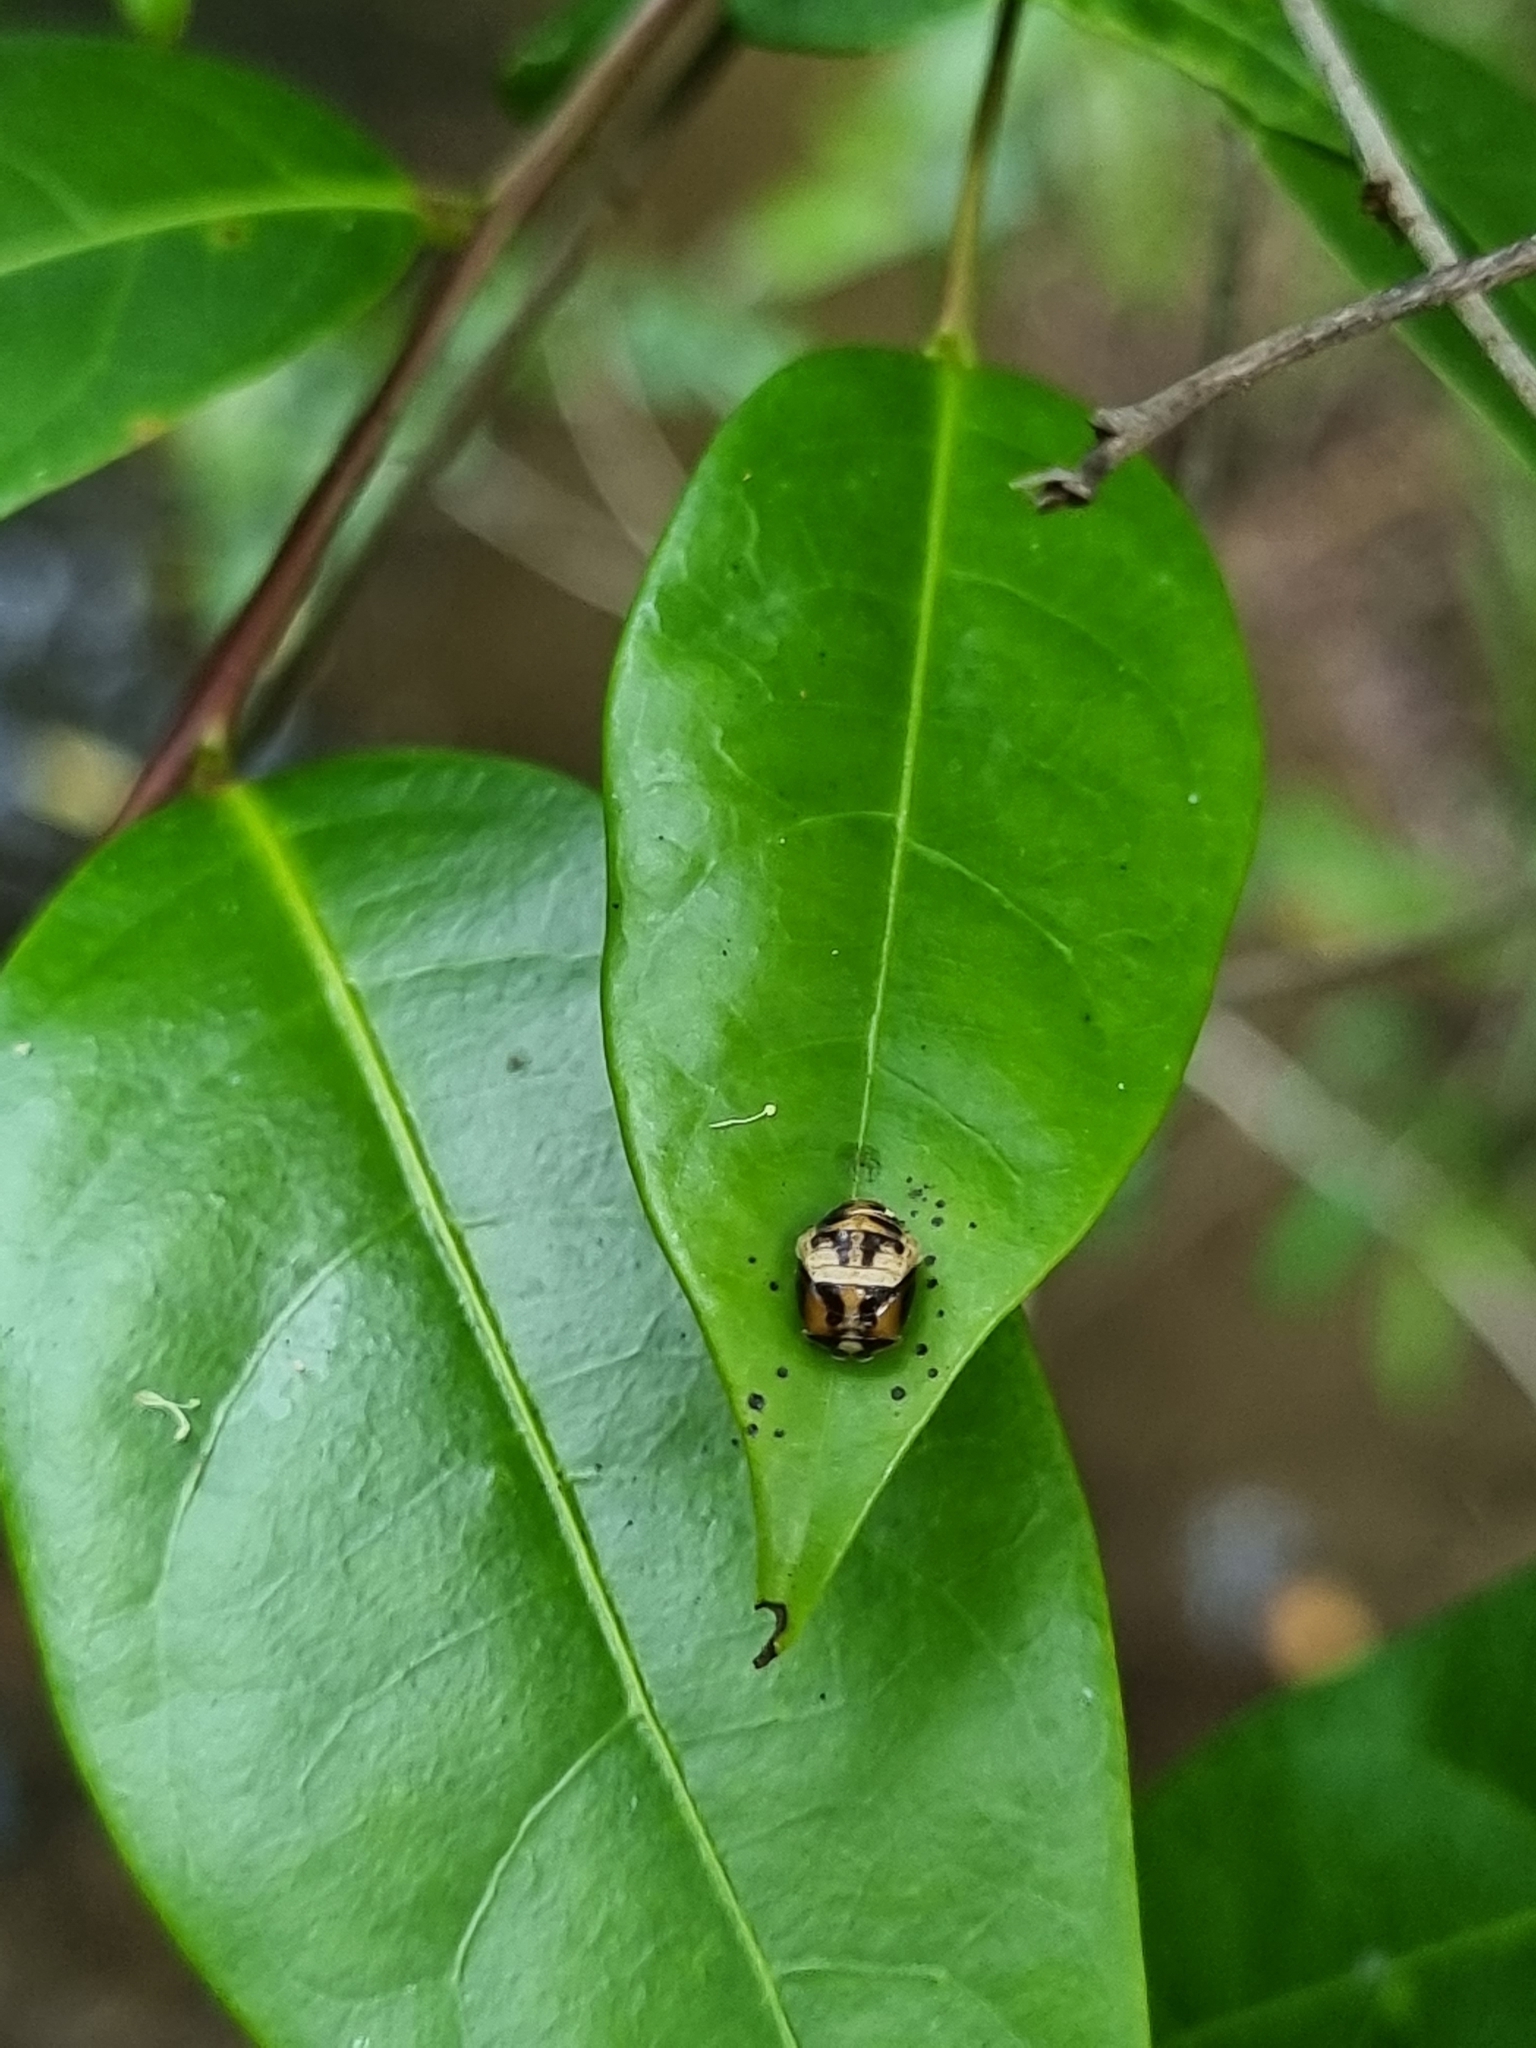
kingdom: Animalia
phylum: Arthropoda
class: Insecta
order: Coleoptera
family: Coccinellidae
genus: Harmonia
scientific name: Harmonia
